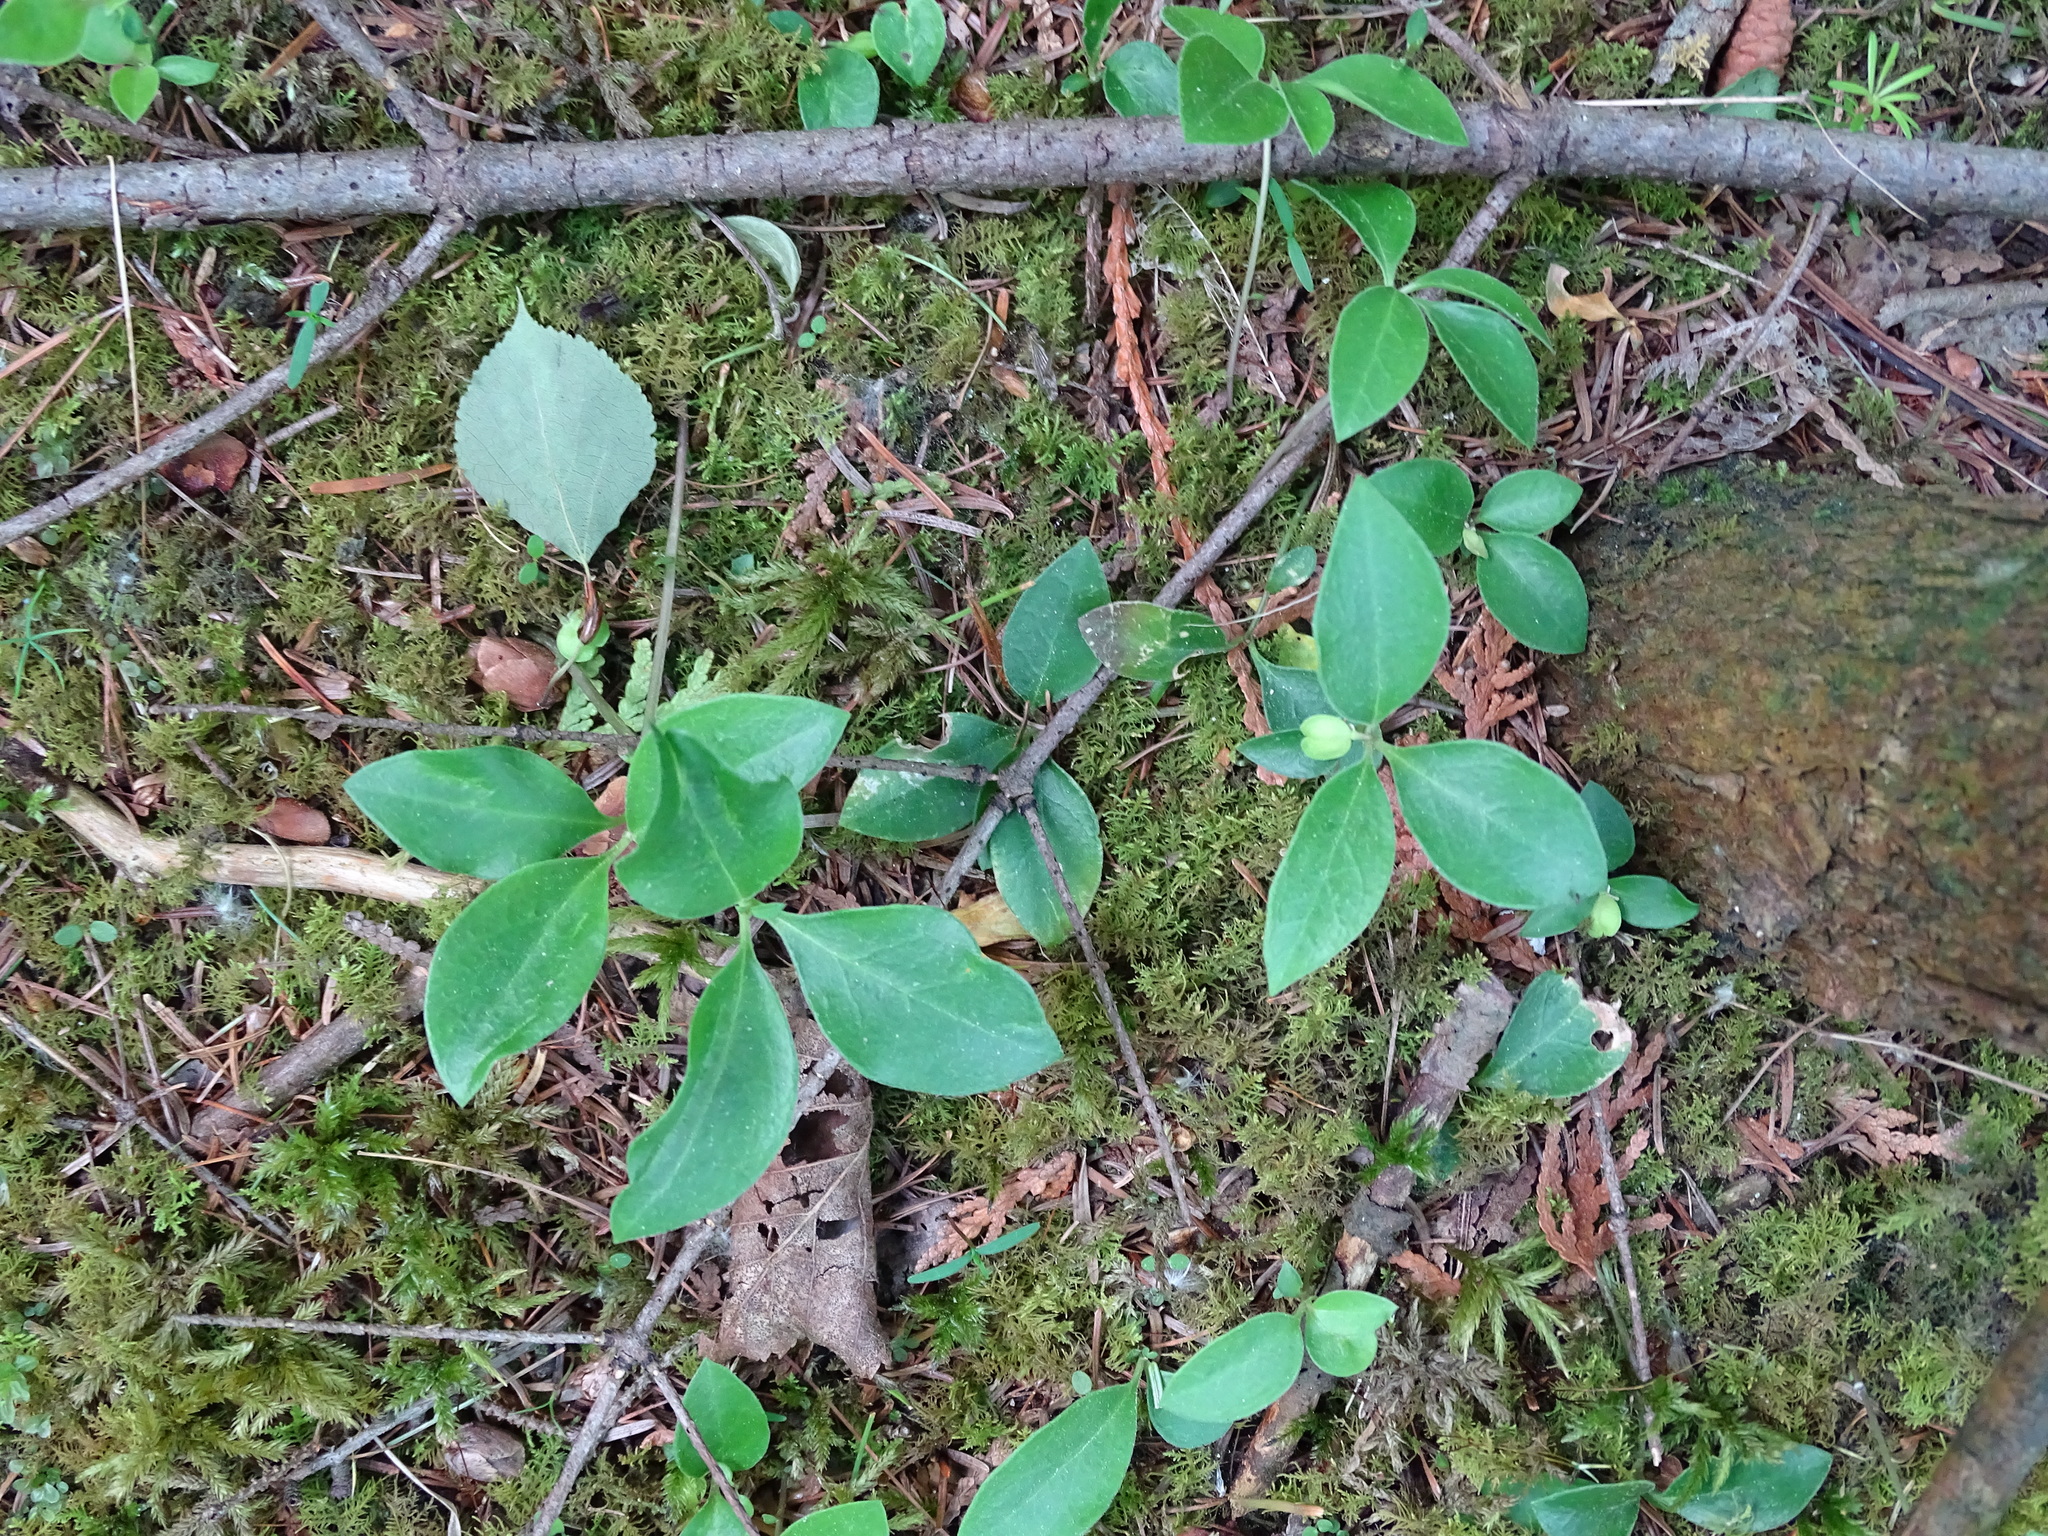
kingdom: Plantae
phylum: Tracheophyta
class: Magnoliopsida
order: Fabales
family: Polygalaceae
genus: Polygaloides
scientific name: Polygaloides paucifolia
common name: Bird-on-the-wing
